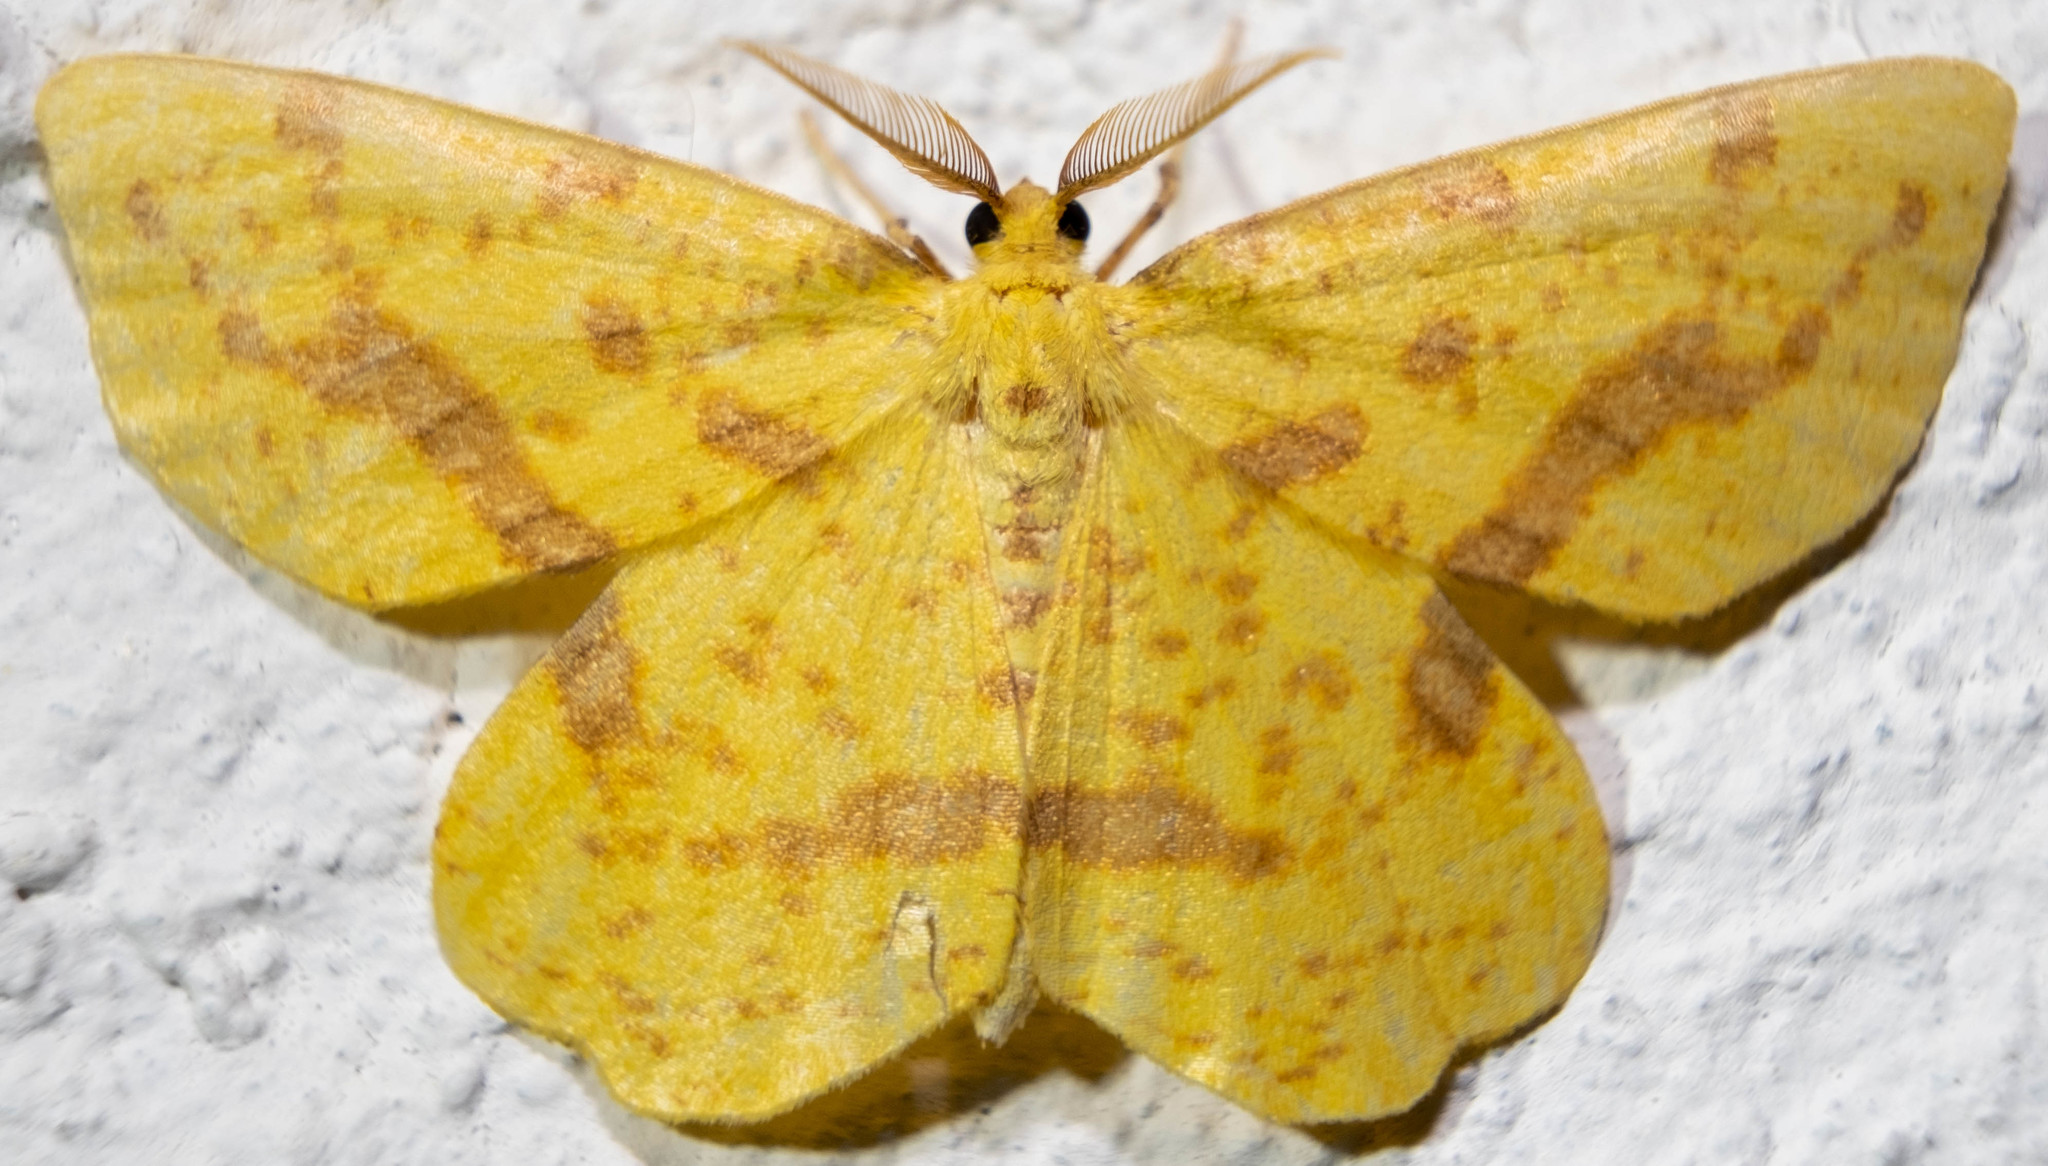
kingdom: Animalia
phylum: Arthropoda
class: Insecta
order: Lepidoptera
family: Geometridae
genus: Xanthotype
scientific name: Xanthotype
